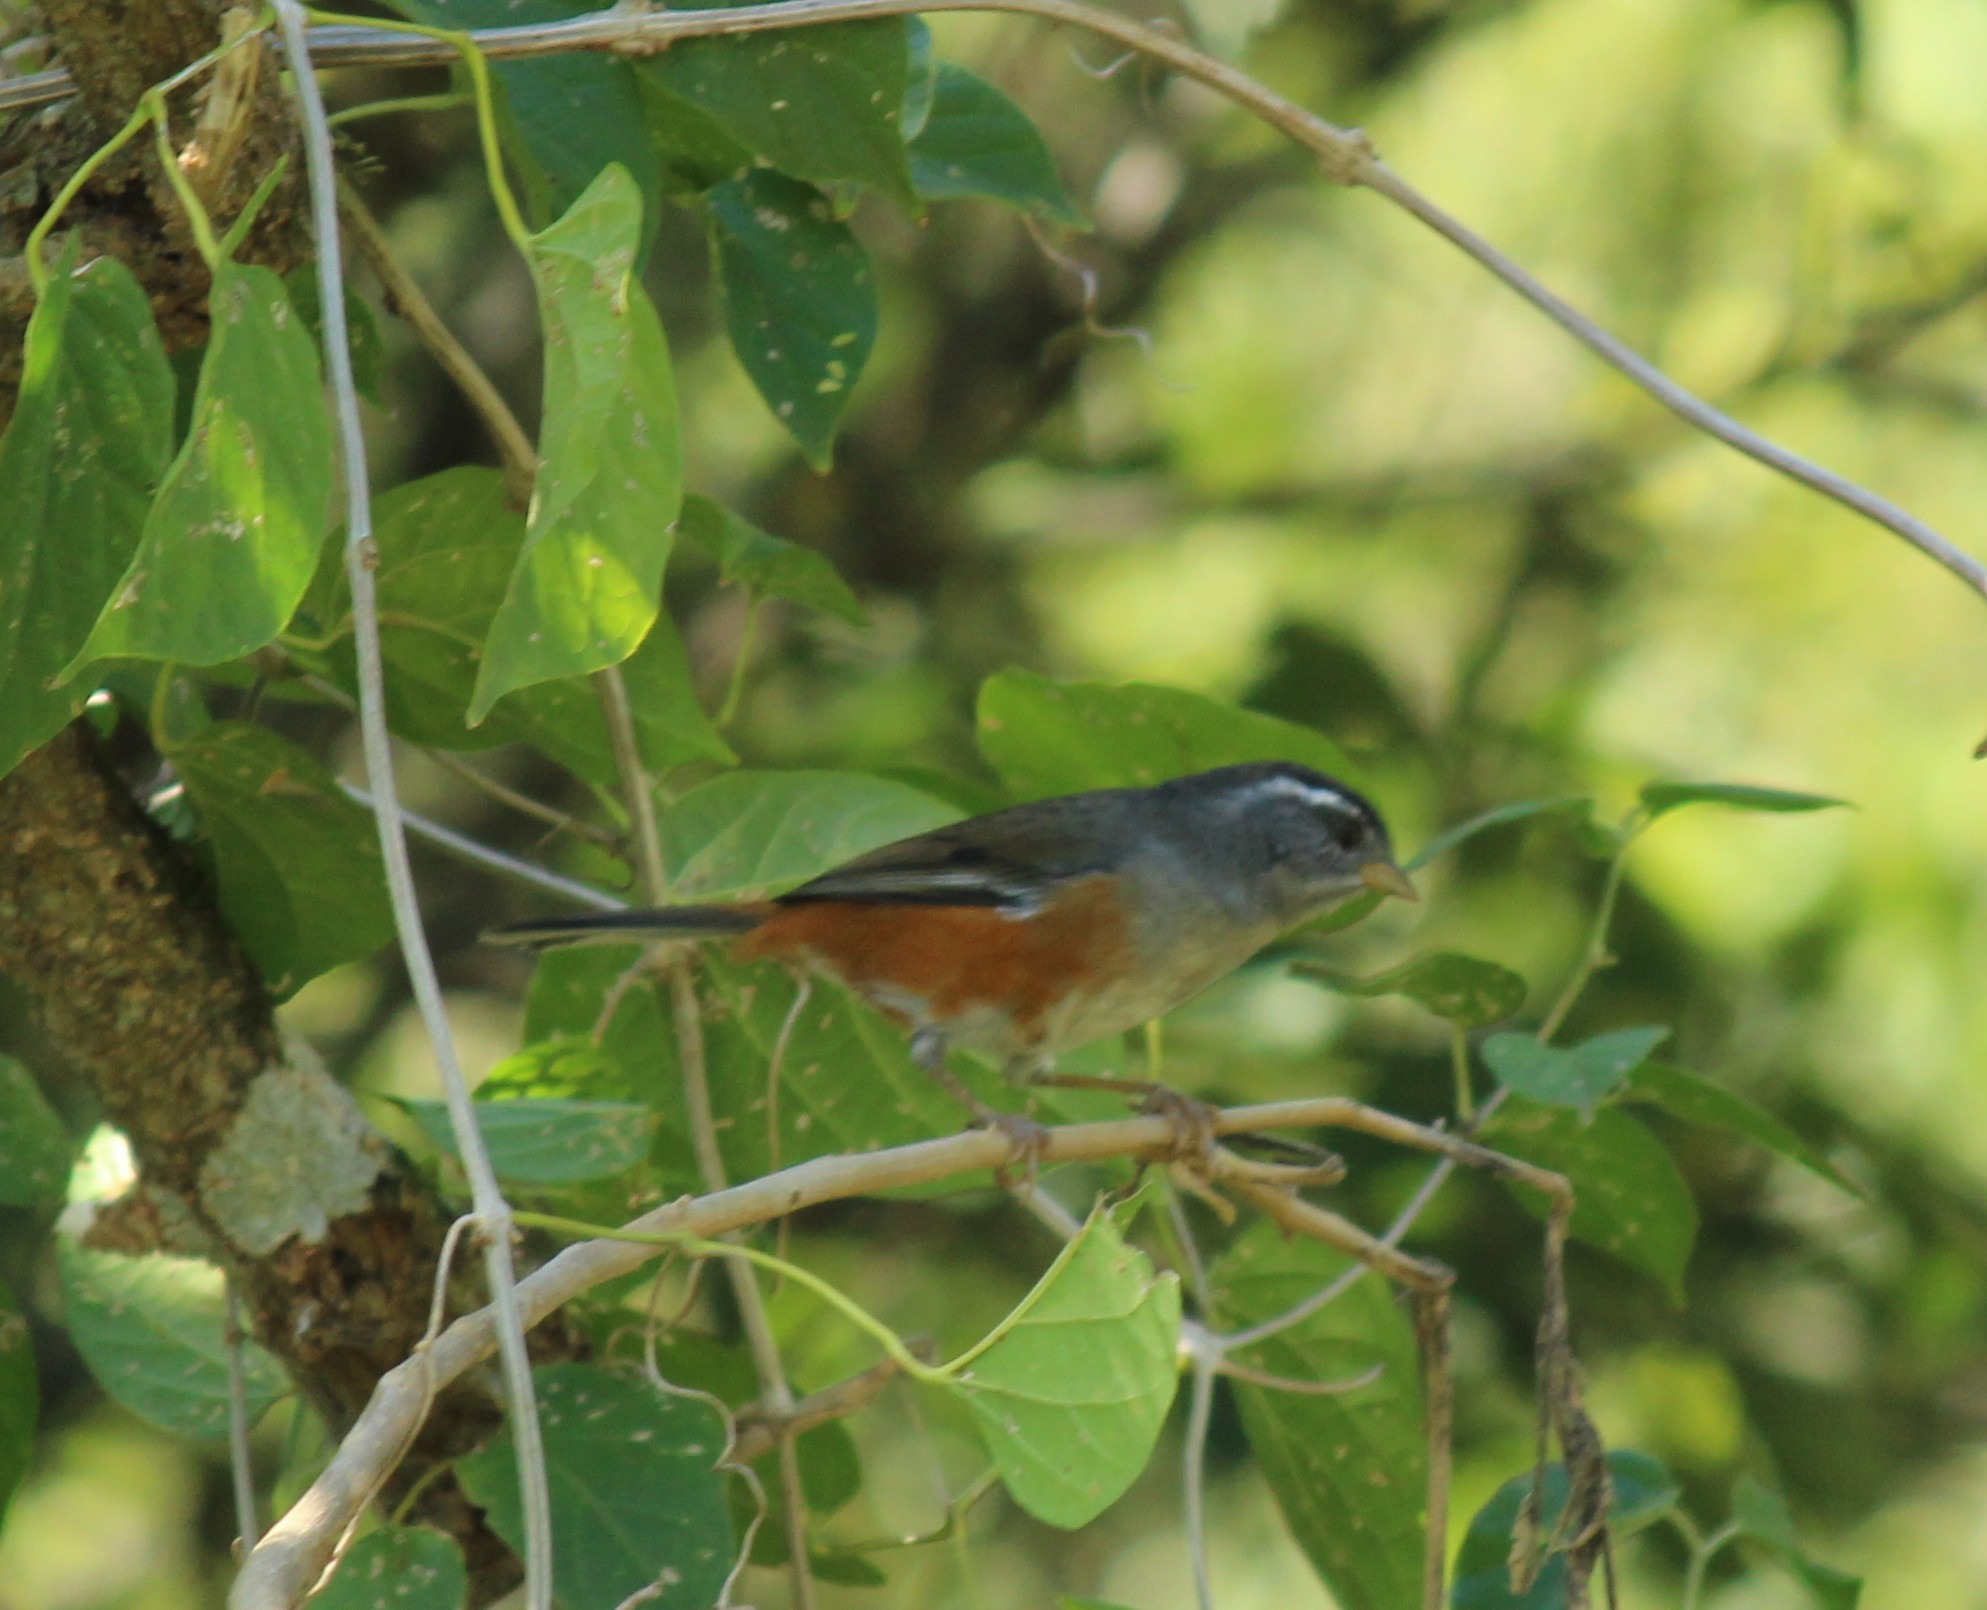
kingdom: Animalia
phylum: Chordata
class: Aves
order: Passeriformes
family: Thraupidae
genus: Microspingus
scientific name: Microspingus cabanisi
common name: Gray-throated warbling-finch
